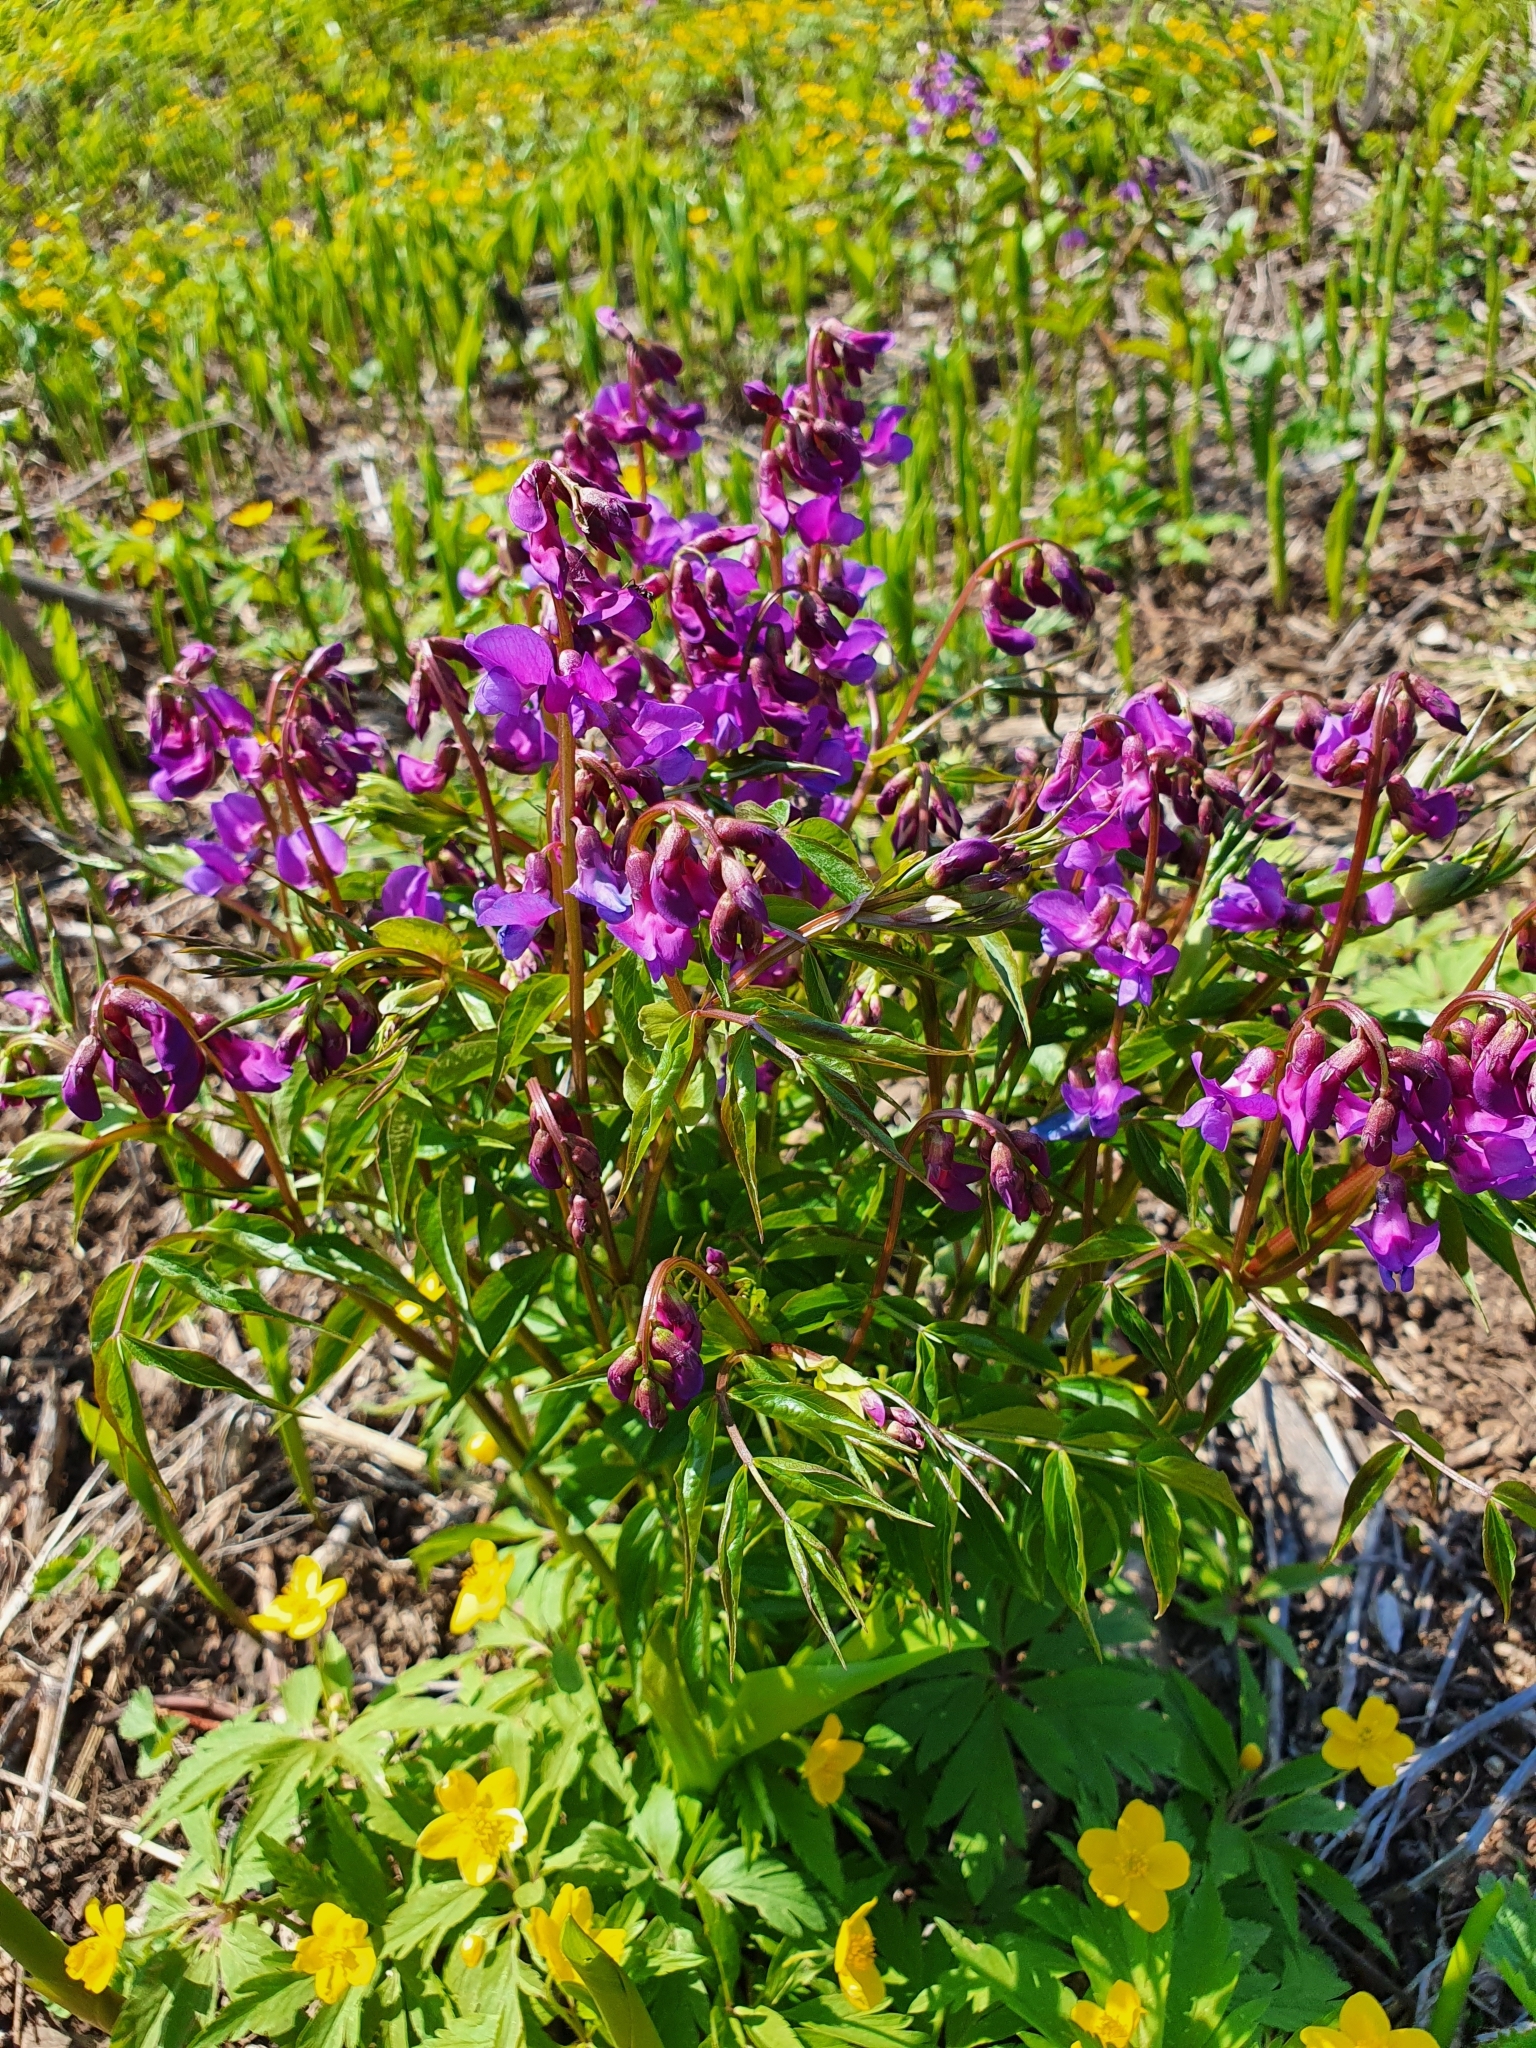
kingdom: Plantae
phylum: Tracheophyta
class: Magnoliopsida
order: Fabales
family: Fabaceae
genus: Lathyrus
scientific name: Lathyrus vernus
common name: Spring pea
